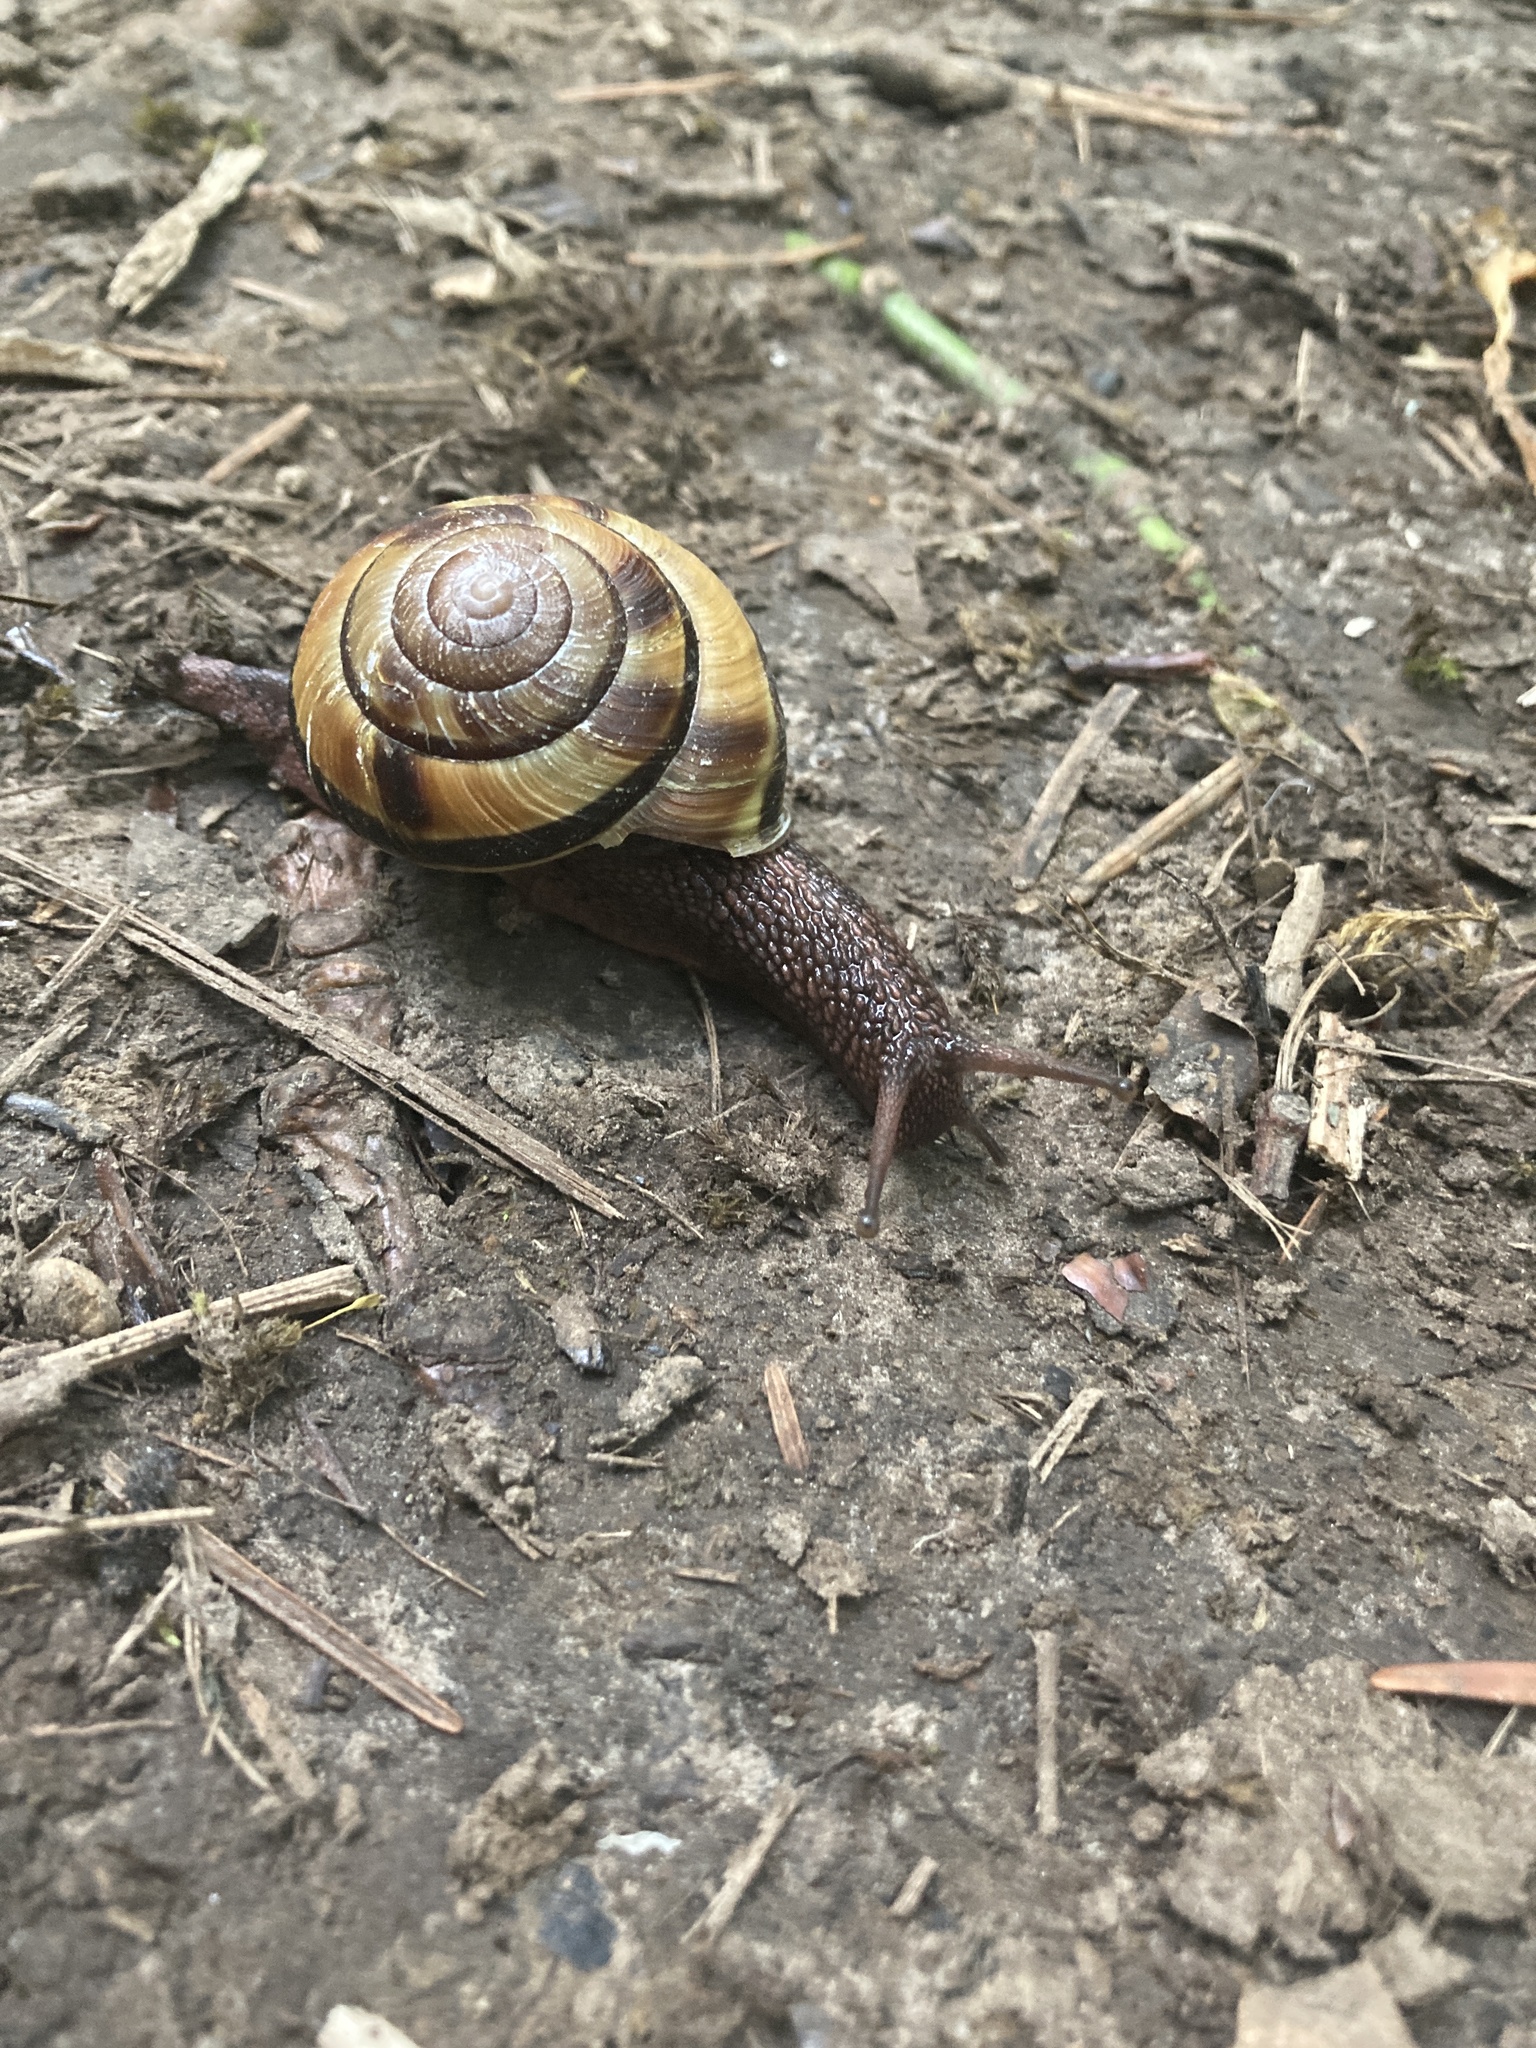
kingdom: Animalia
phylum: Mollusca
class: Gastropoda
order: Stylommatophora
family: Xanthonychidae
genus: Monadenia
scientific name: Monadenia fidelis
